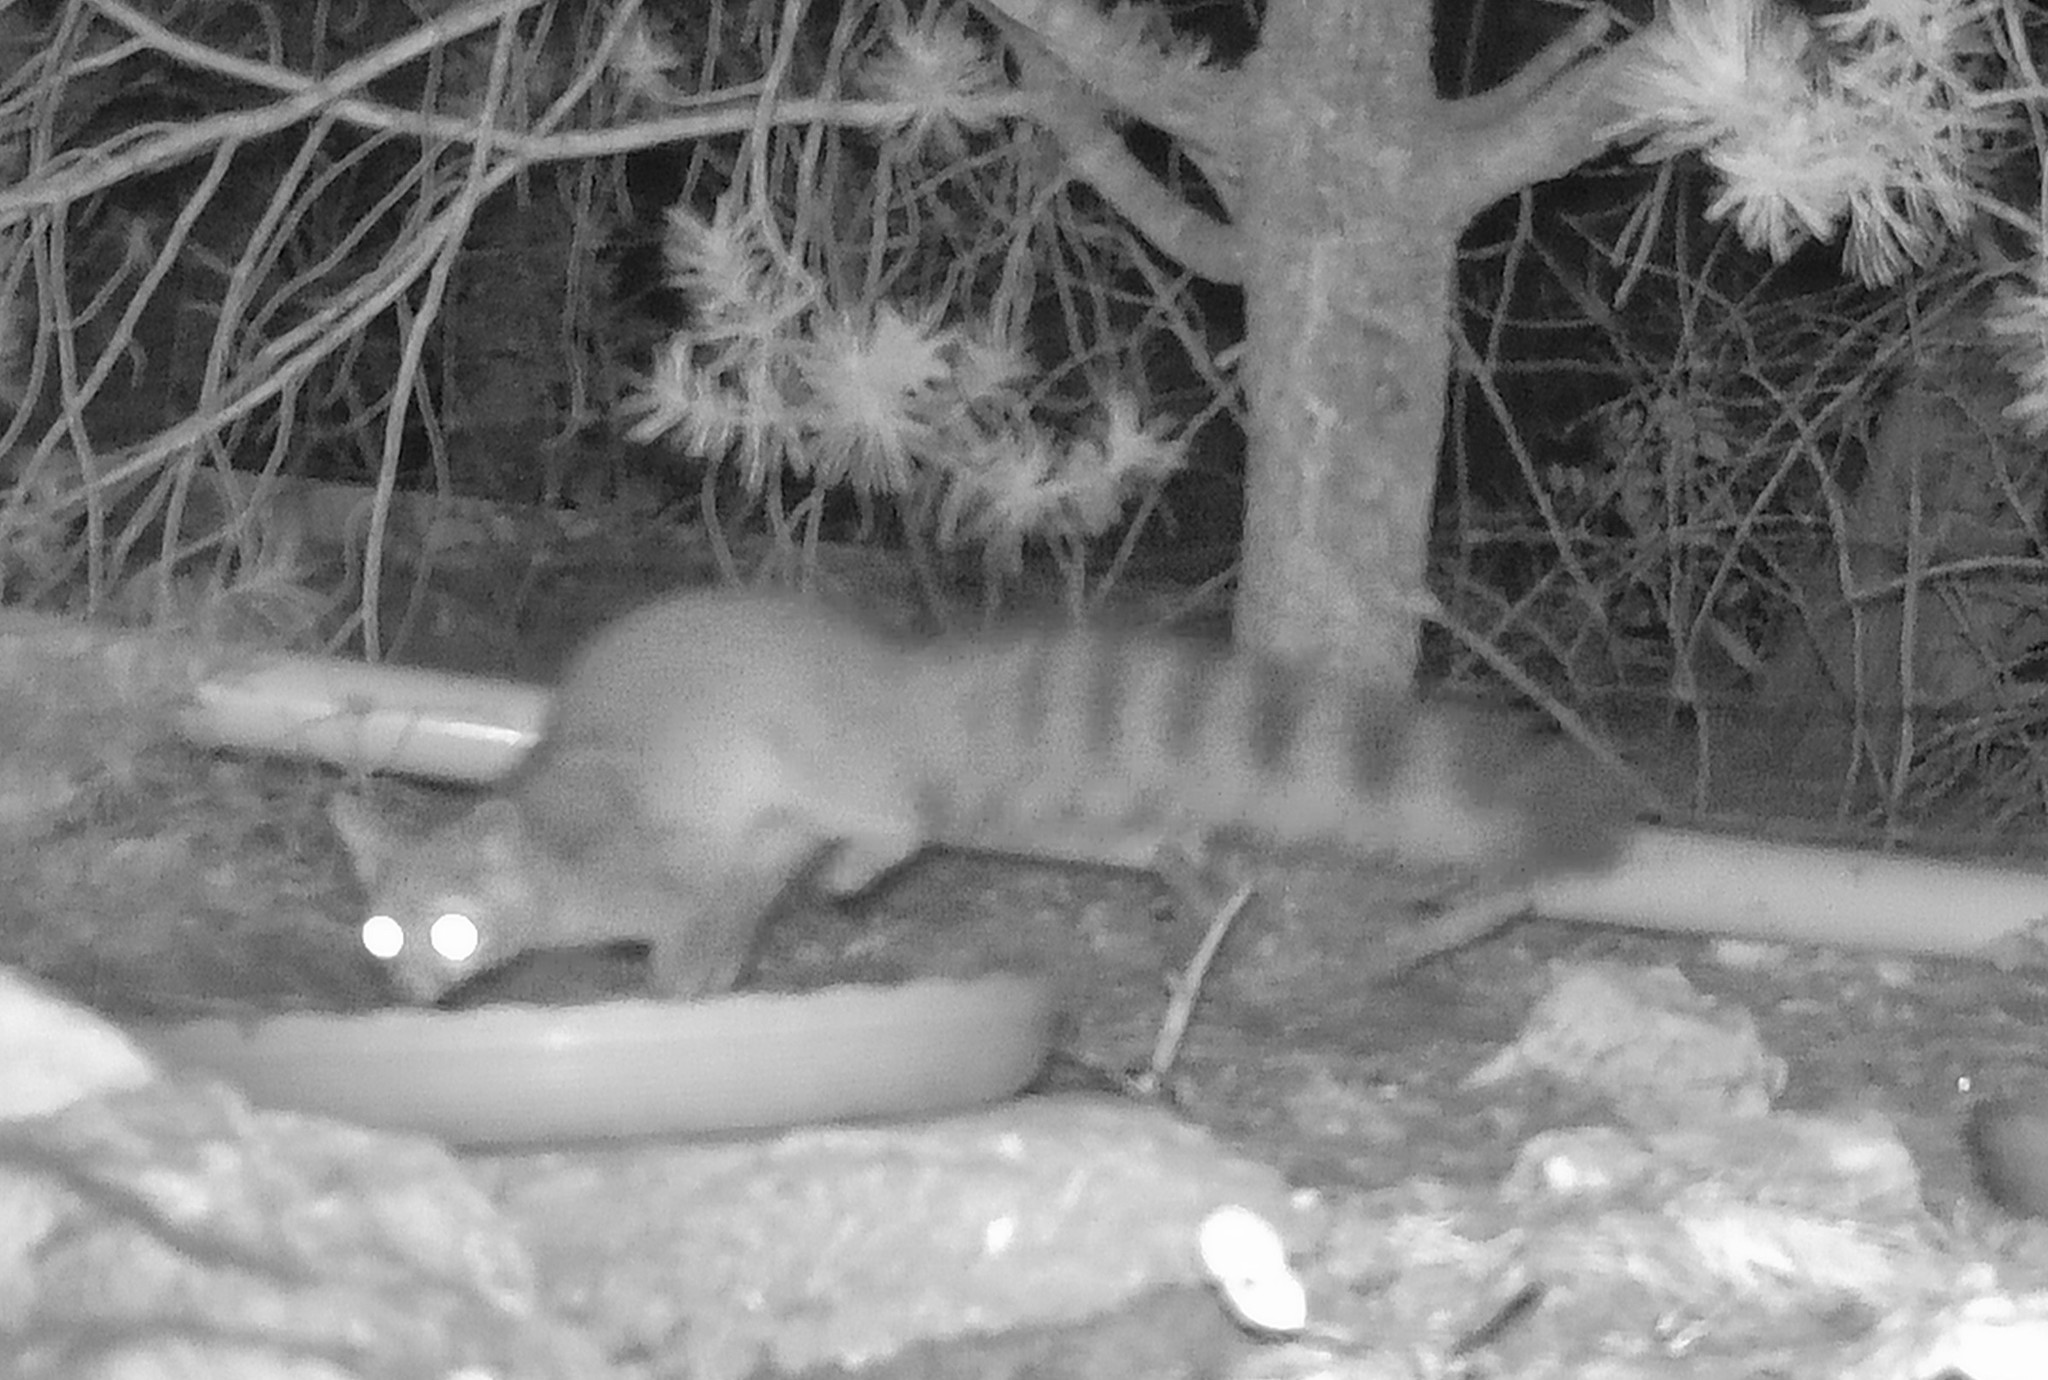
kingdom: Animalia
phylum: Chordata
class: Mammalia
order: Carnivora
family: Procyonidae
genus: Bassariscus
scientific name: Bassariscus astutus
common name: Ringtail
